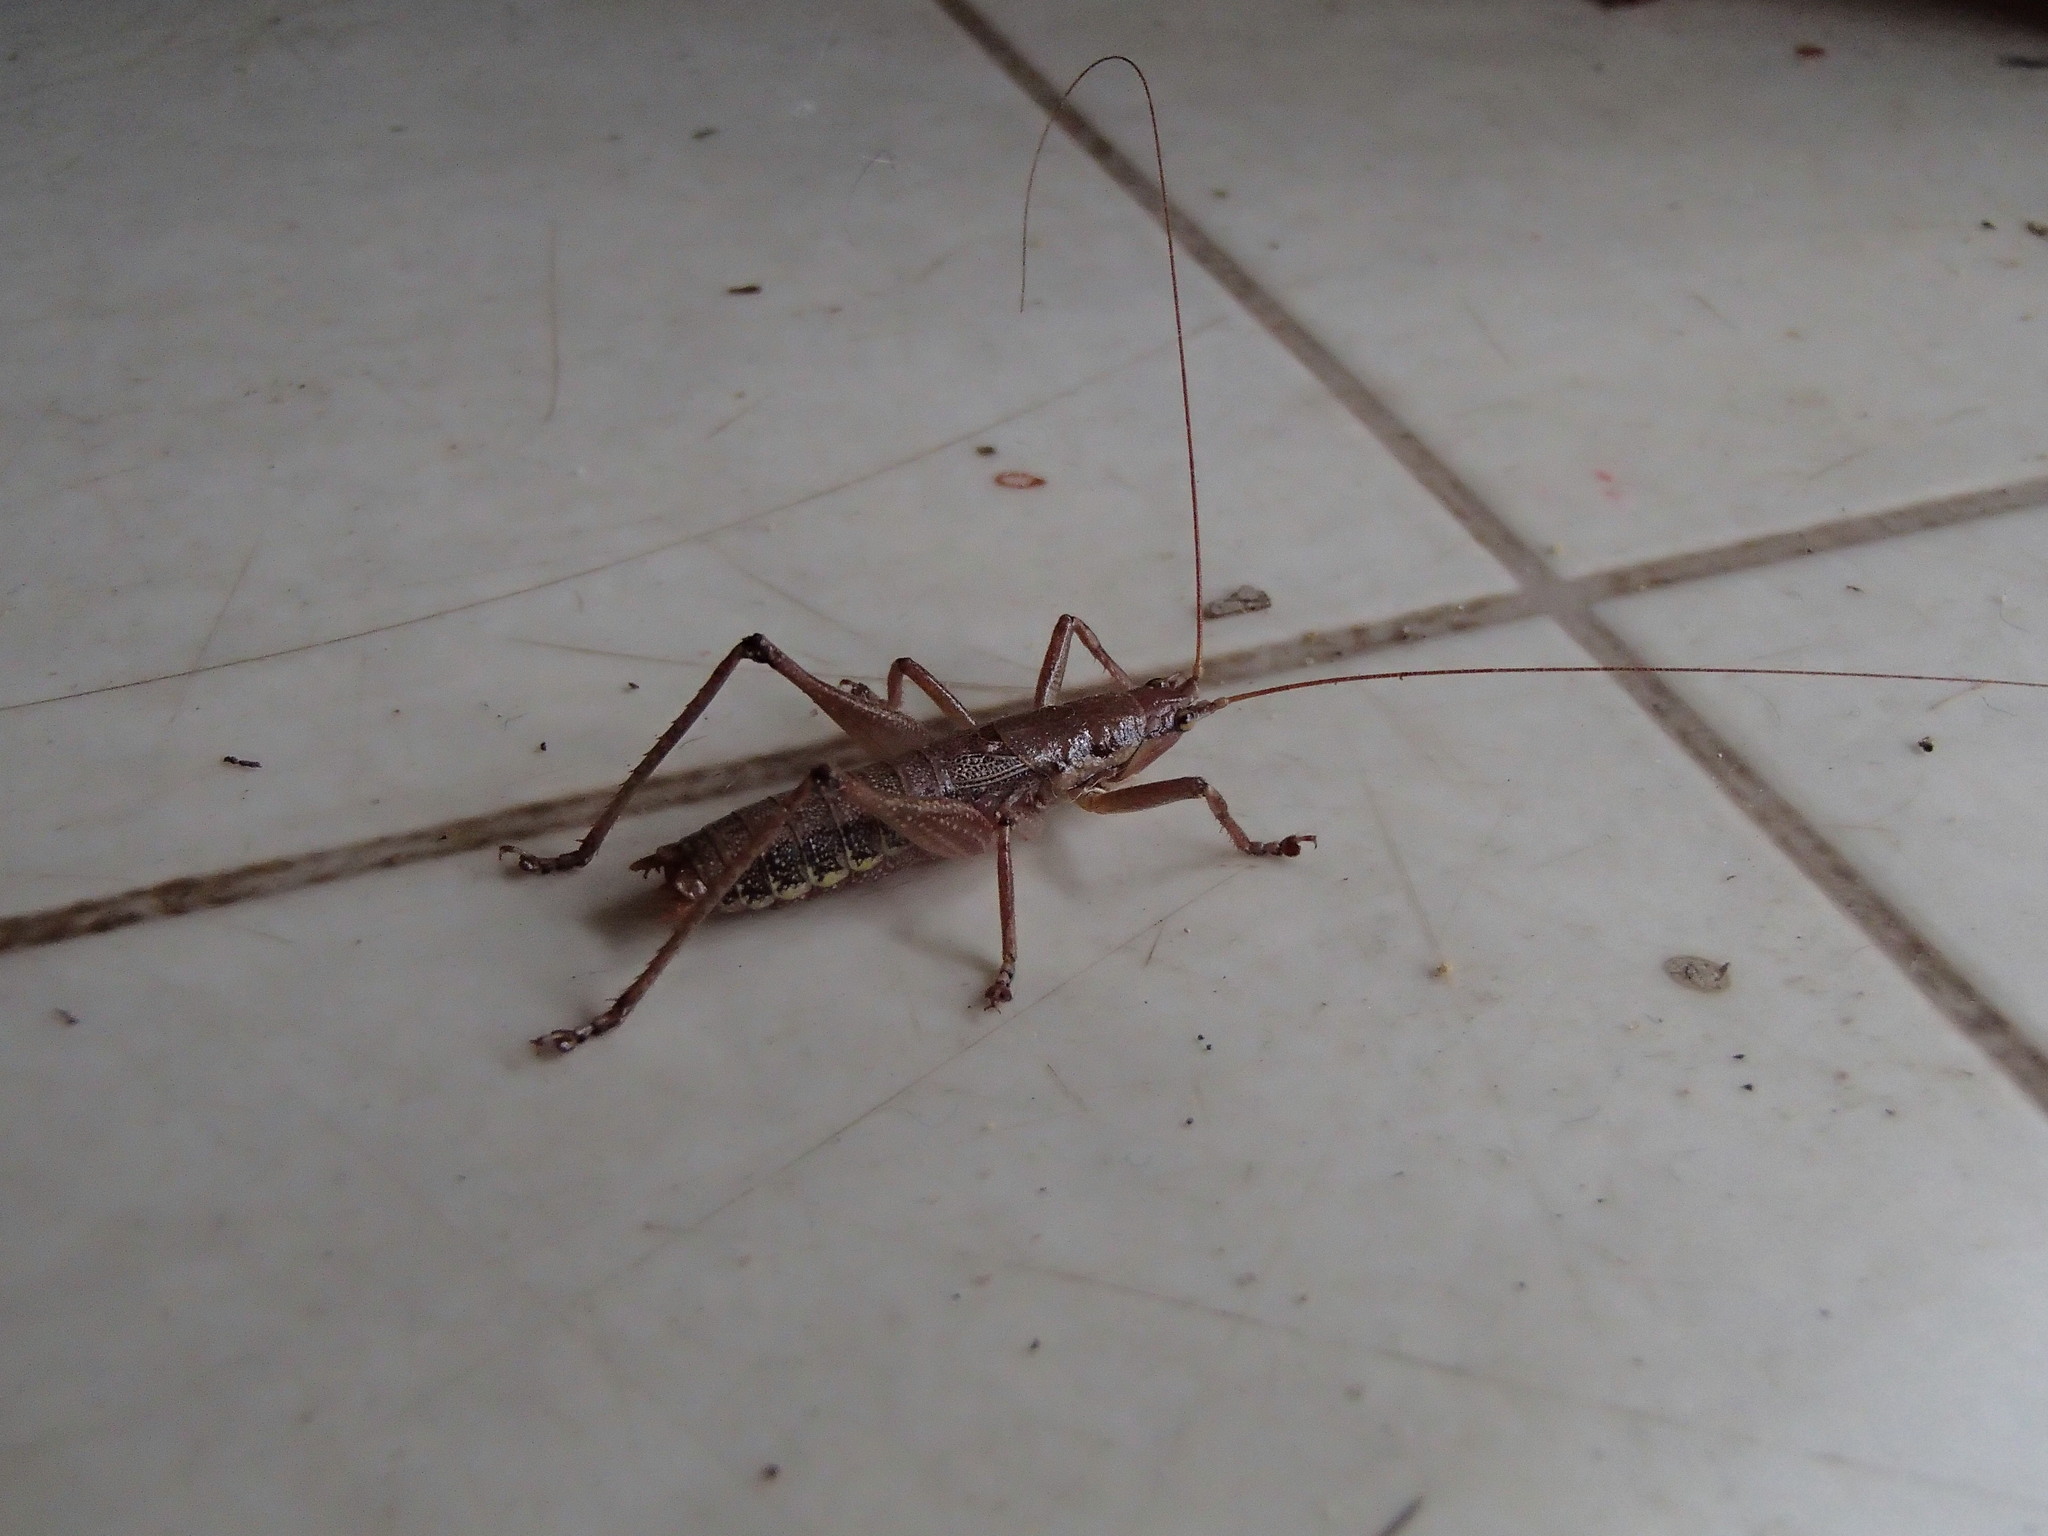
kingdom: Animalia
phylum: Arthropoda
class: Insecta
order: Orthoptera
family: Tettigoniidae
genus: Coptaspis
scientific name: Coptaspis brevipennis
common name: Sidney woodland katydid
